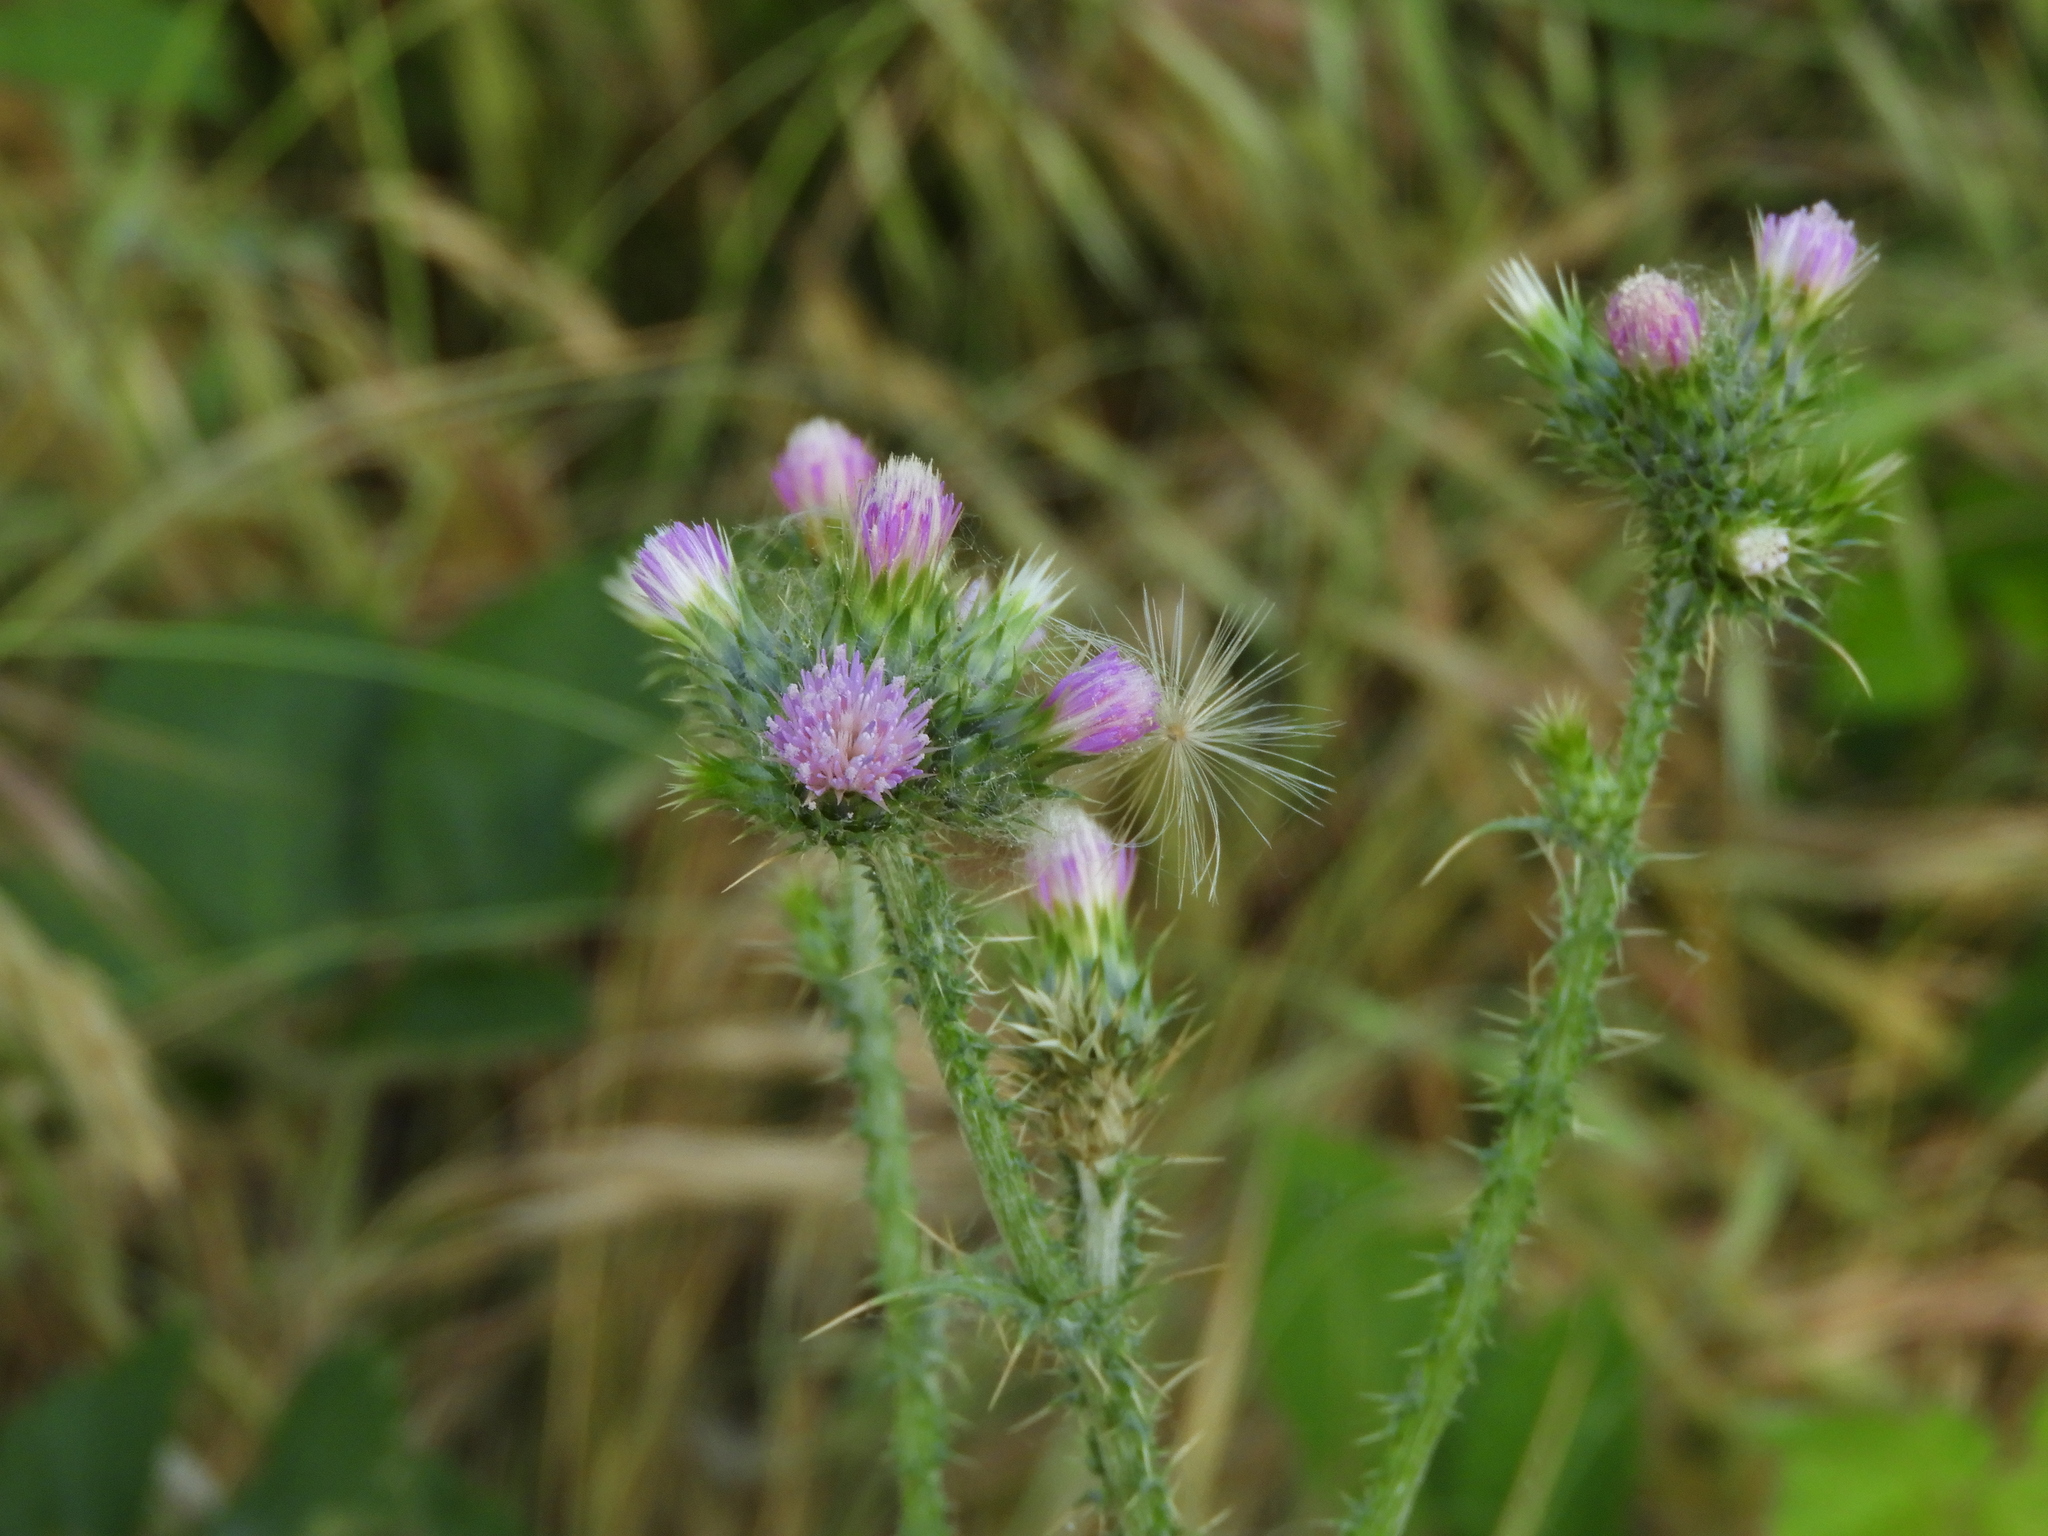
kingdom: Plantae
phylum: Tracheophyta
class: Magnoliopsida
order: Asterales
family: Asteraceae
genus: Carduus
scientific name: Carduus pycnocephalus
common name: Plymouth thistle
